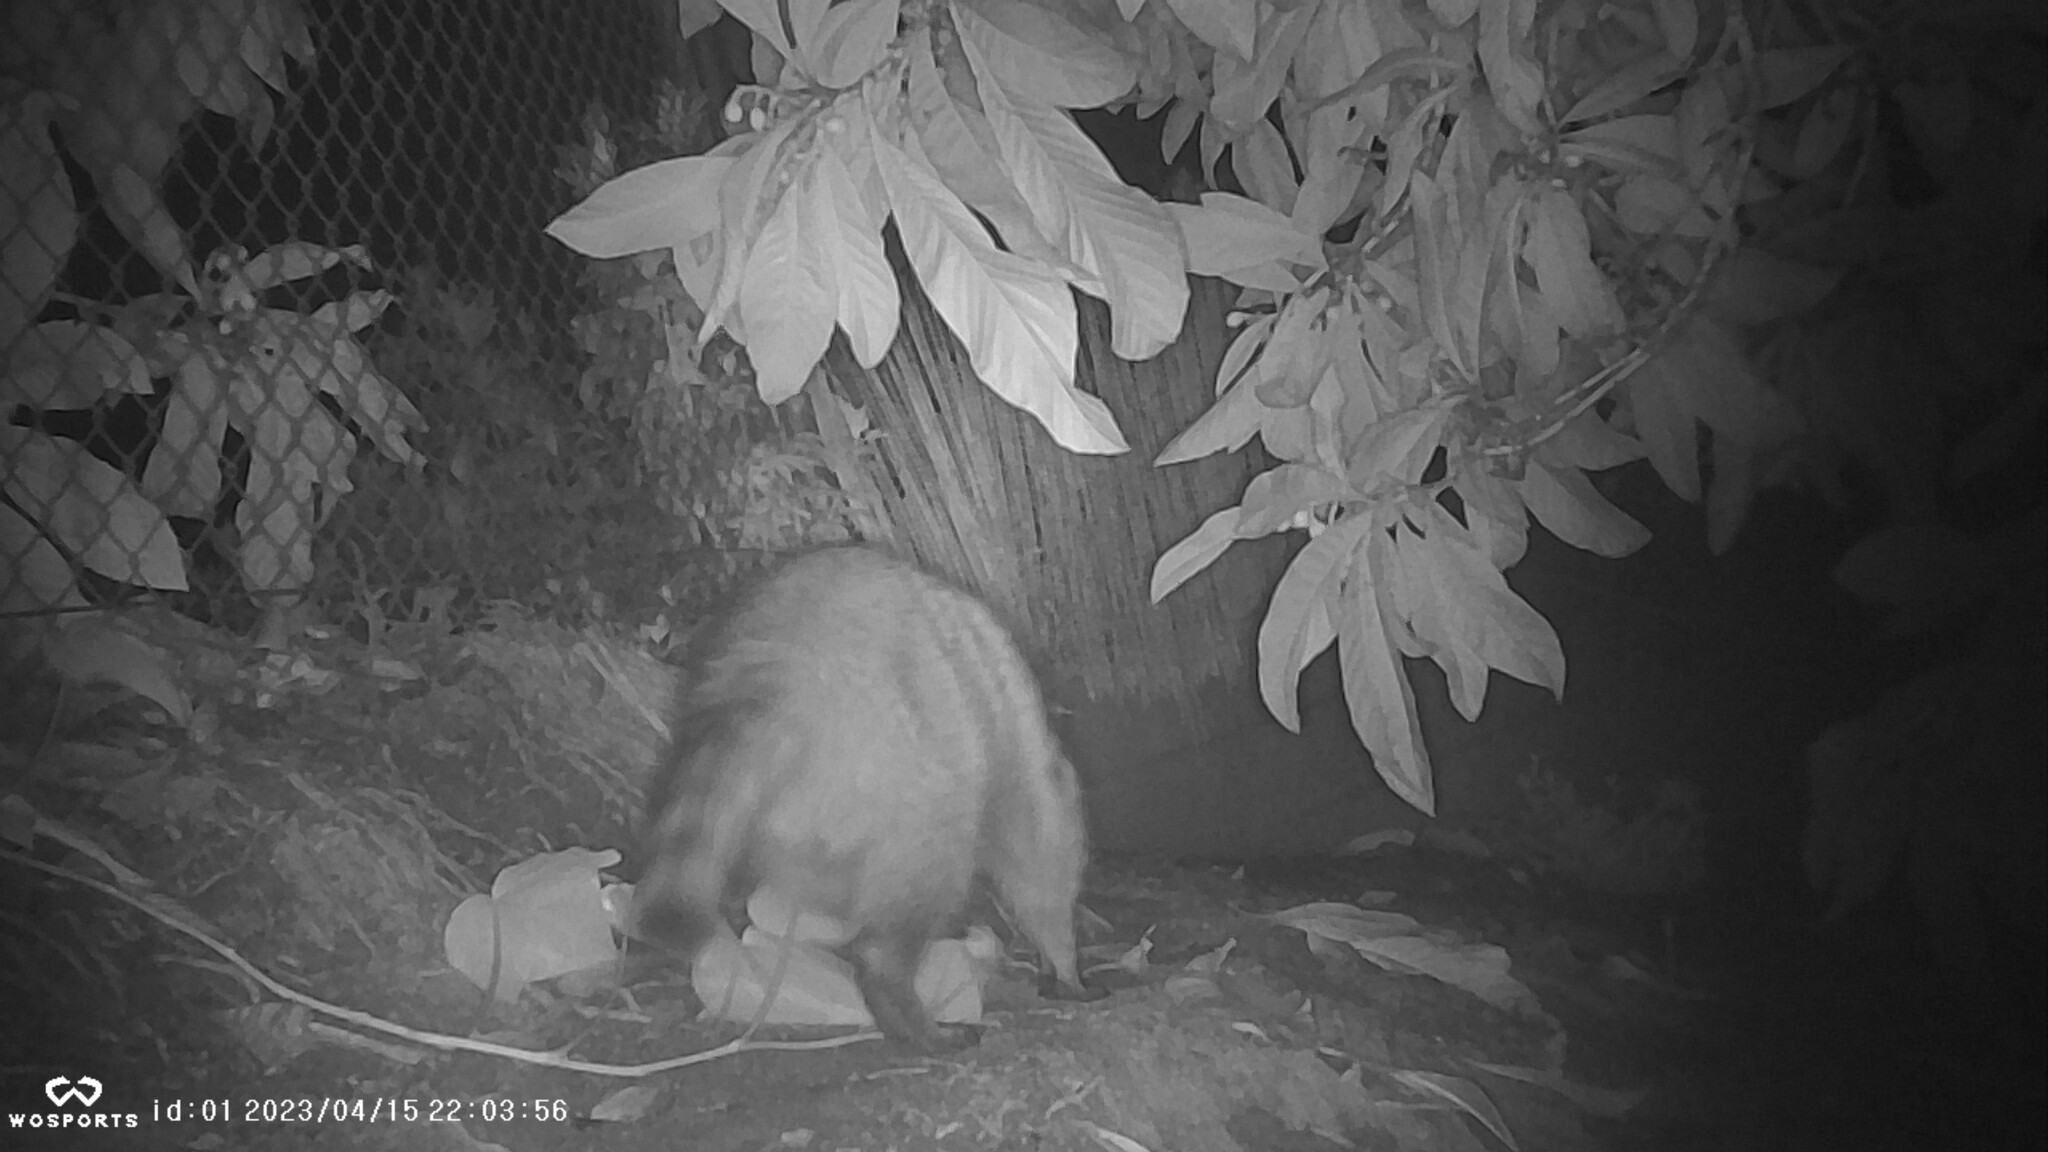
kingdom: Animalia
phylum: Chordata
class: Mammalia
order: Carnivora
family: Procyonidae
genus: Procyon
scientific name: Procyon lotor
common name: Raccoon
